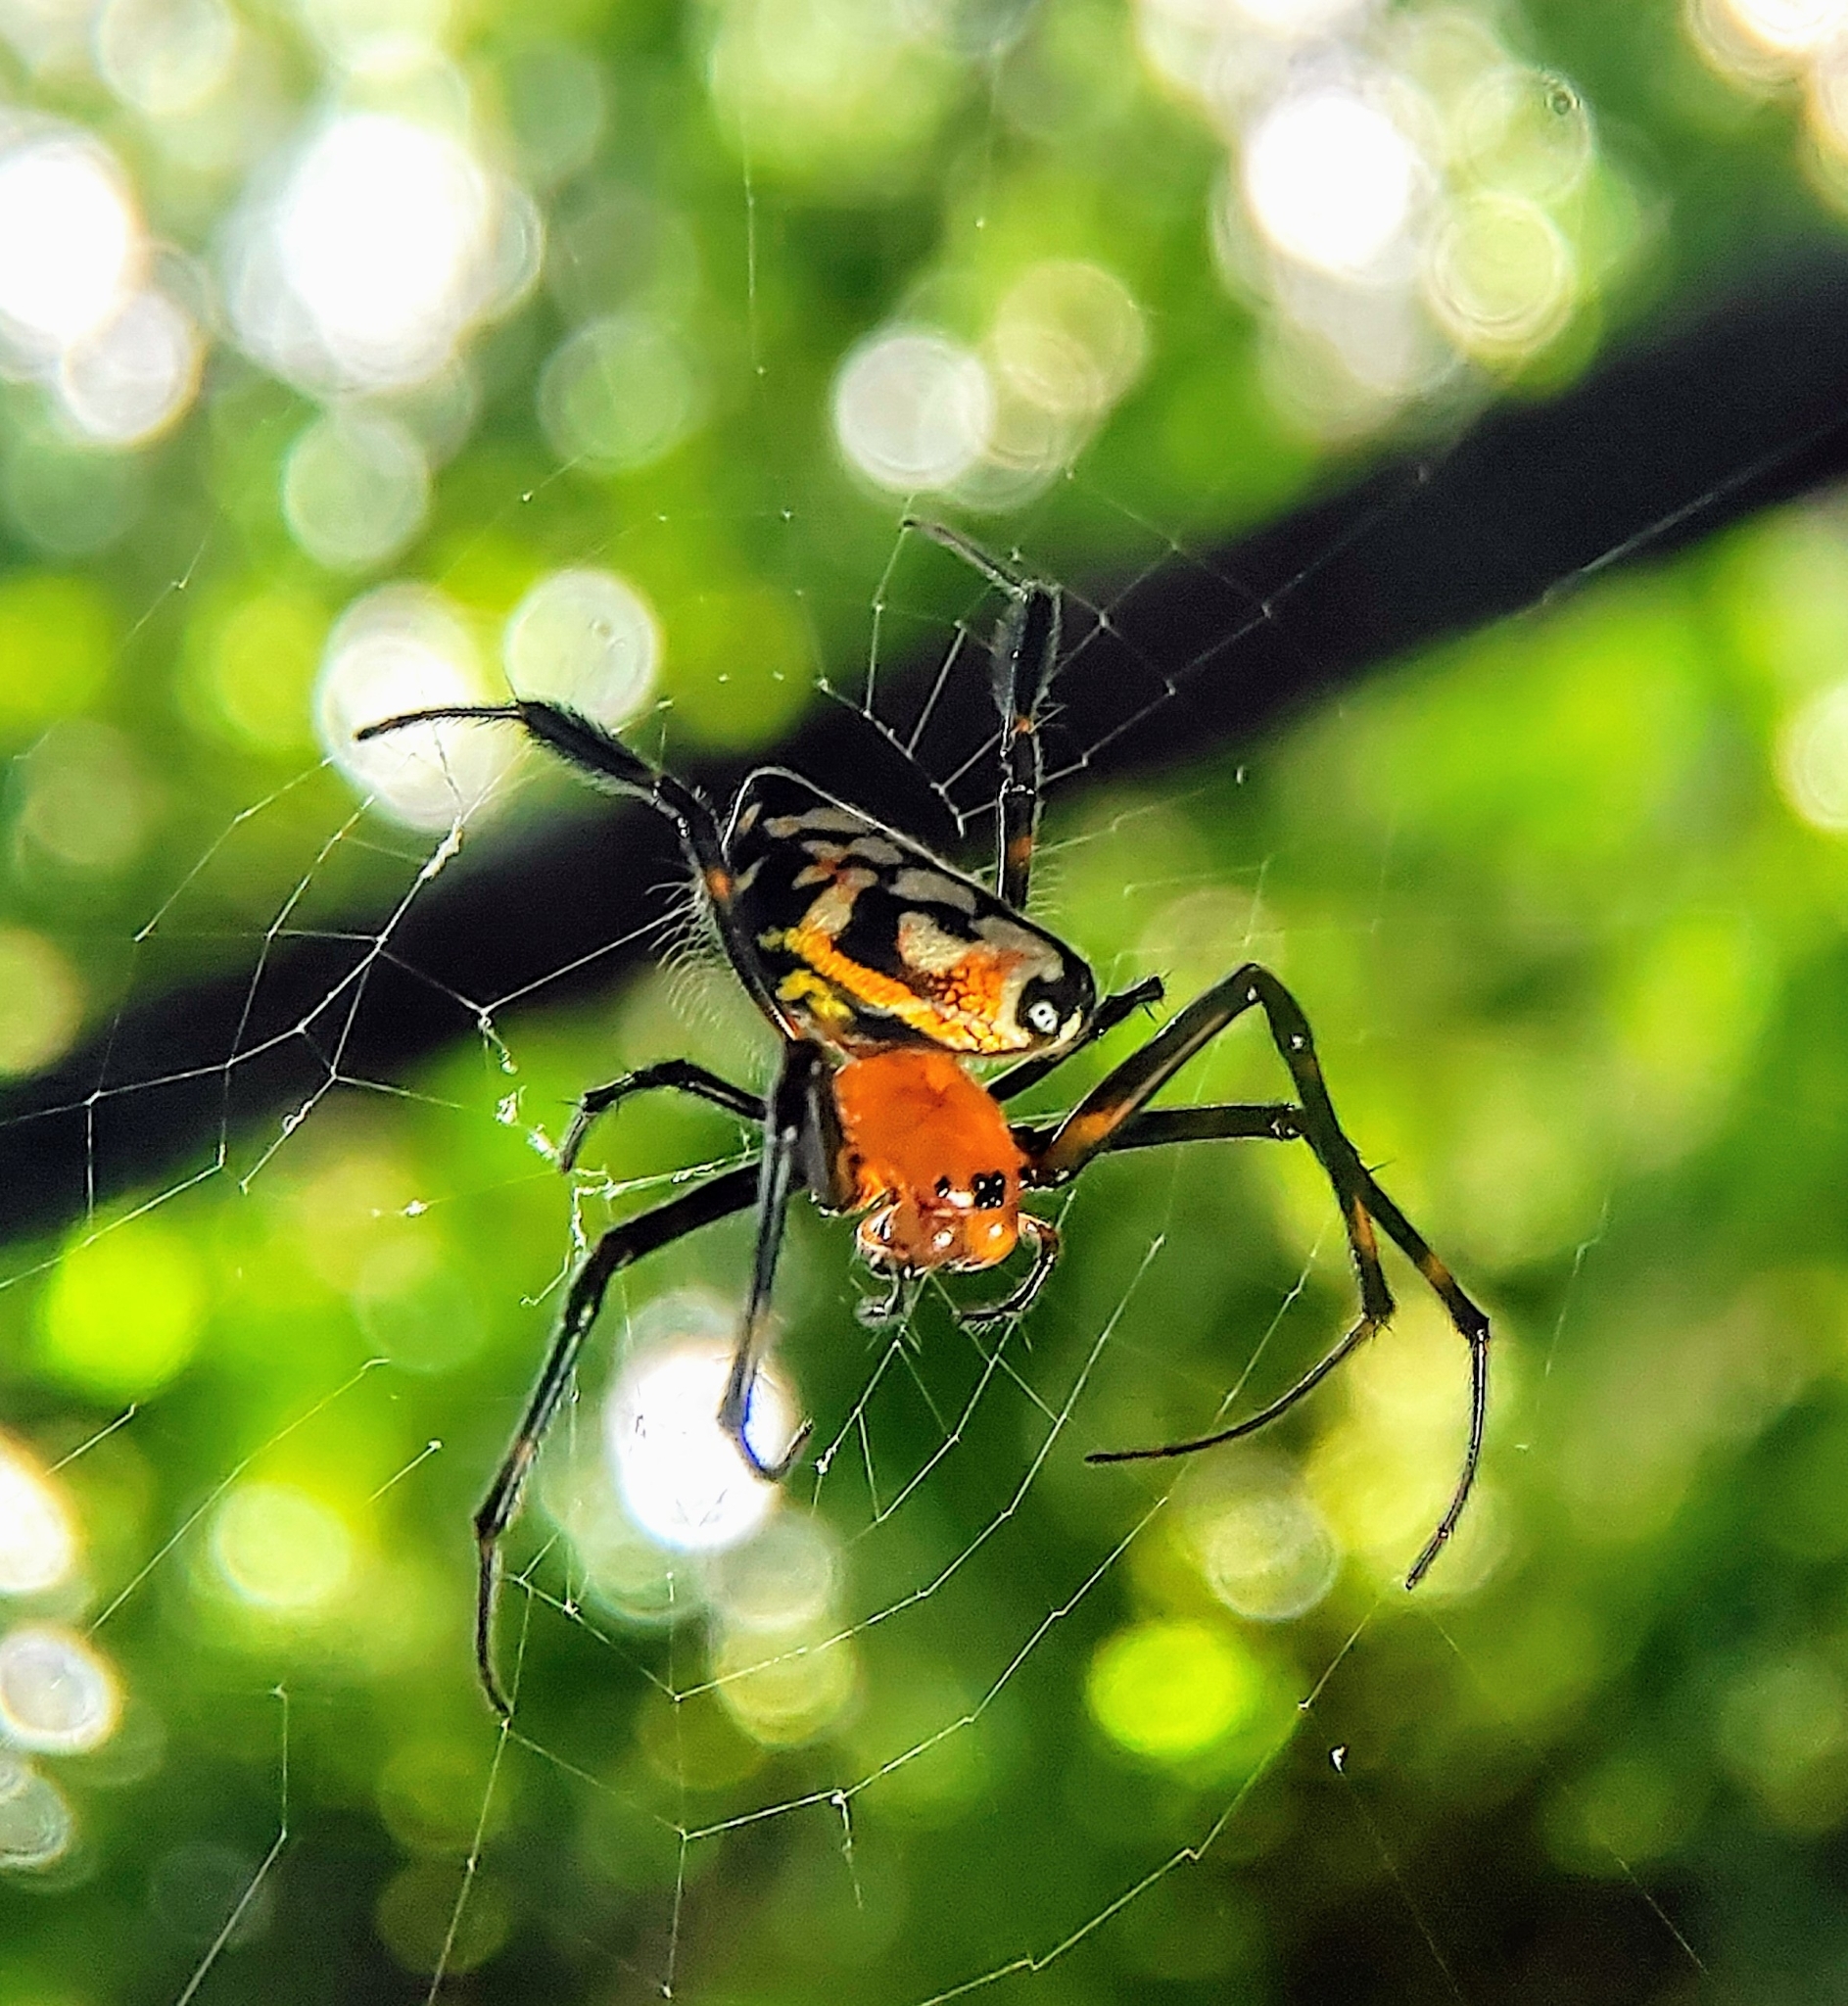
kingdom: Animalia
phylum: Arthropoda
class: Arachnida
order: Araneae
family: Tetragnathidae
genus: Leucauge
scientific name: Leucauge fastigata
